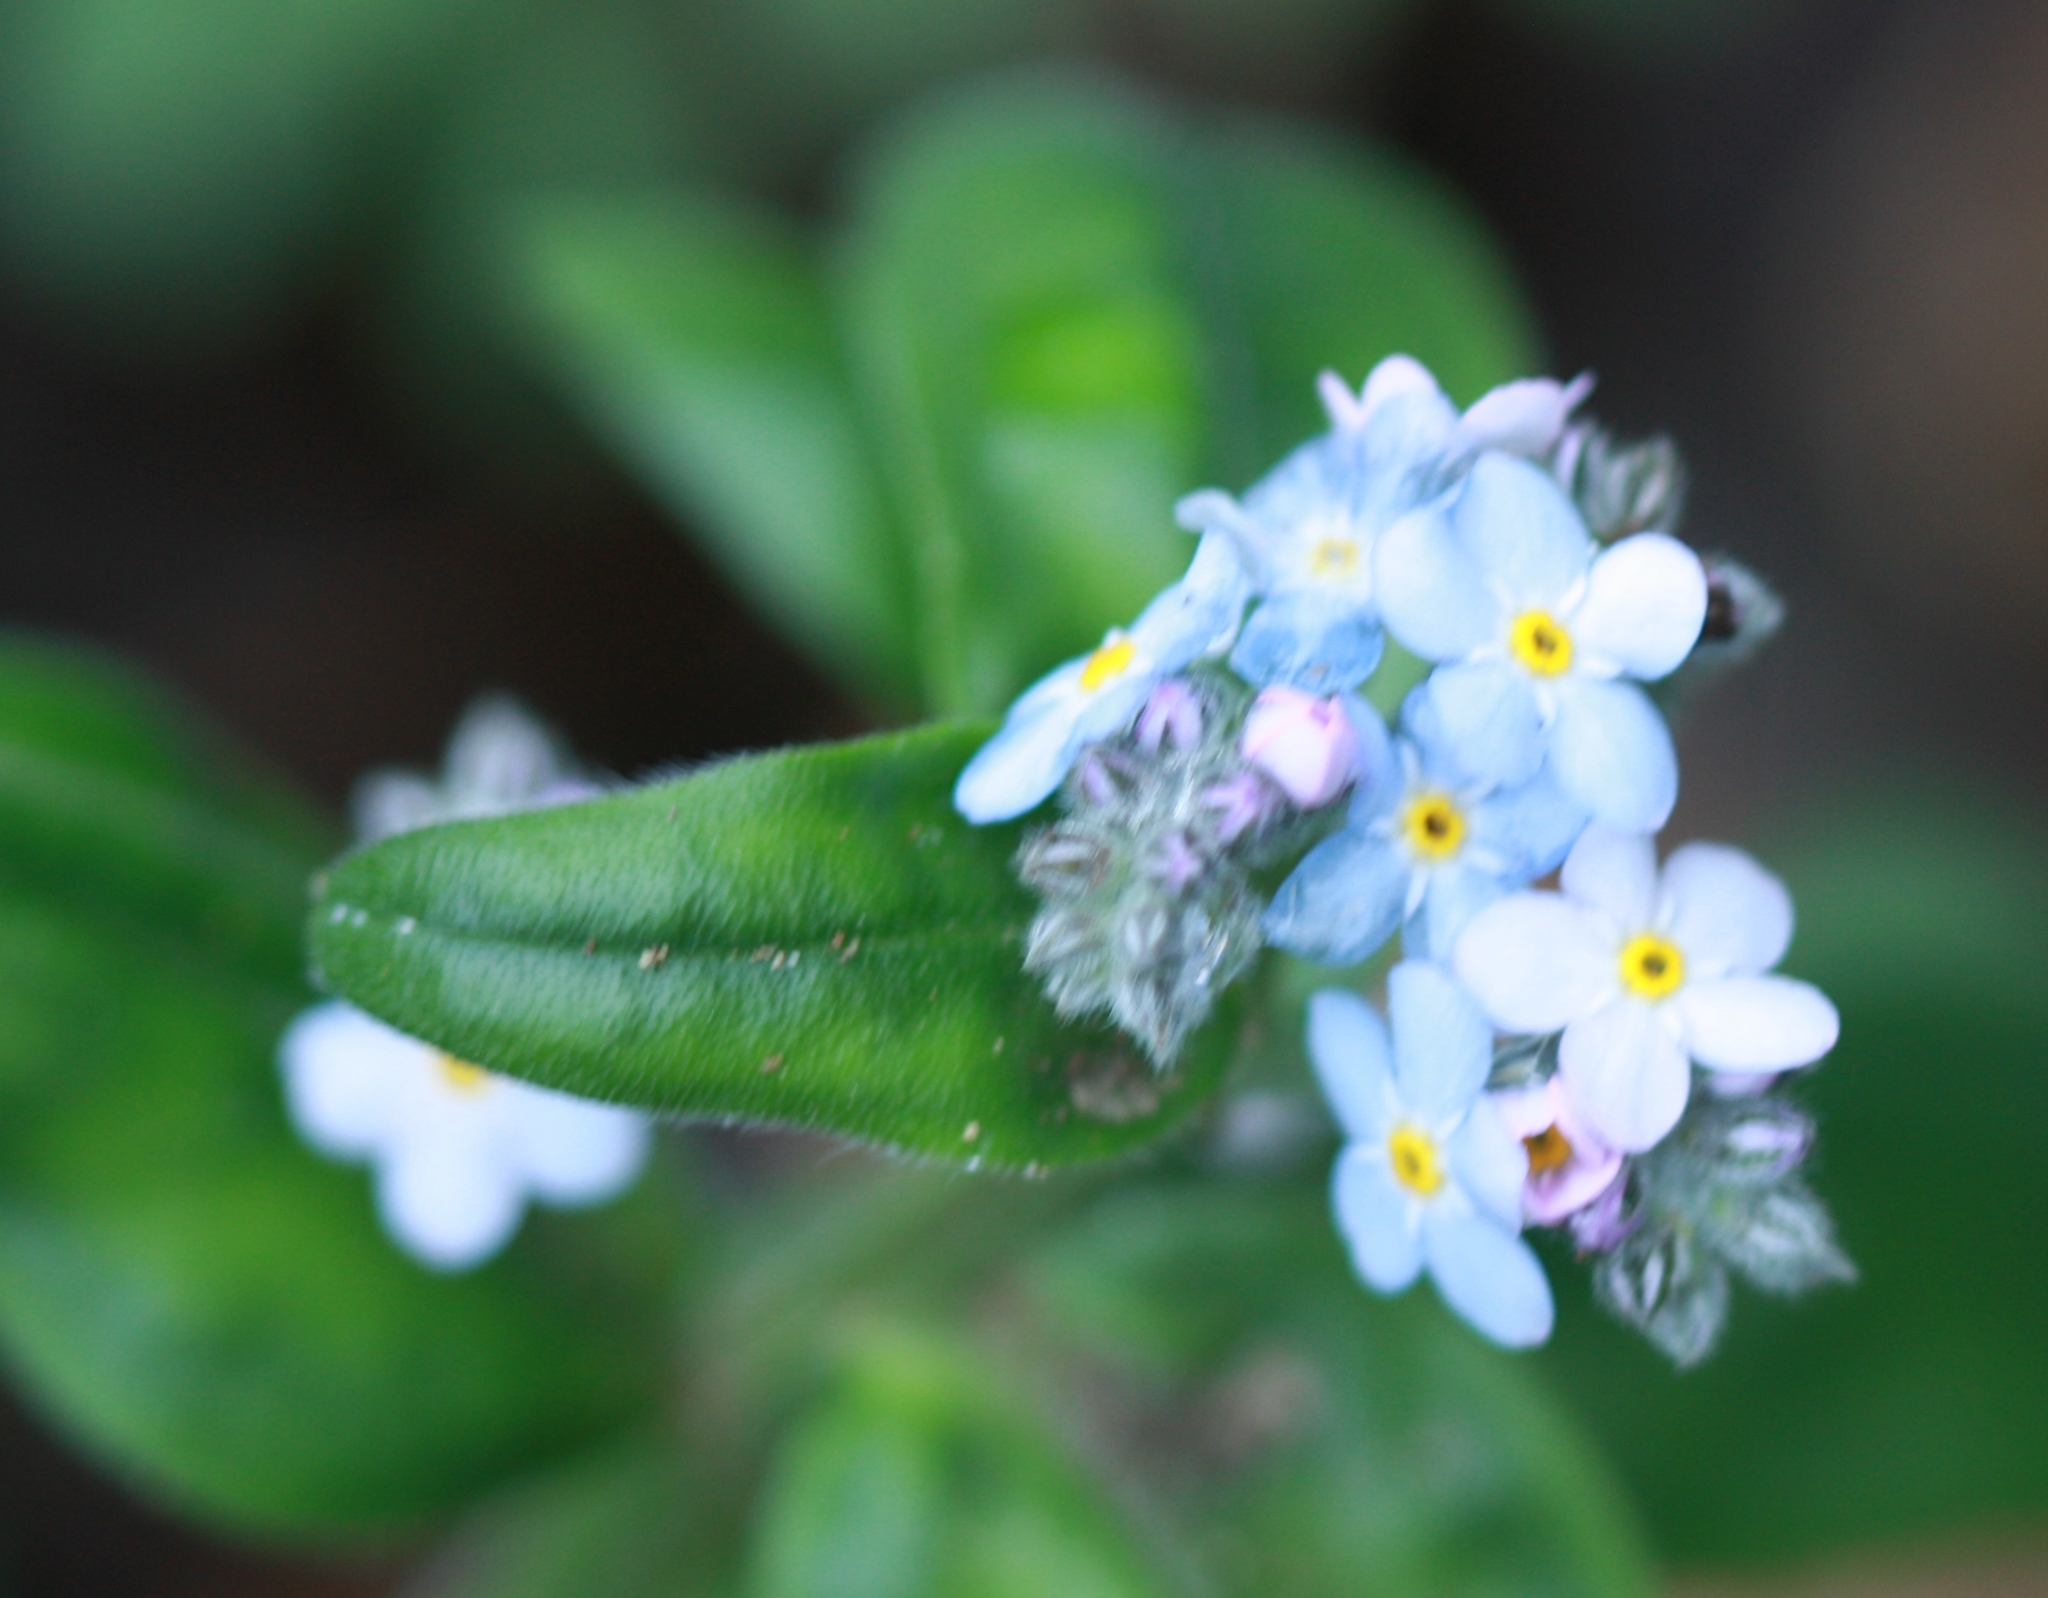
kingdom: Plantae
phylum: Tracheophyta
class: Magnoliopsida
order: Boraginales
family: Boraginaceae
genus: Myosotis
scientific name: Myosotis latifolia
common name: Broadleaf forget-me-not
